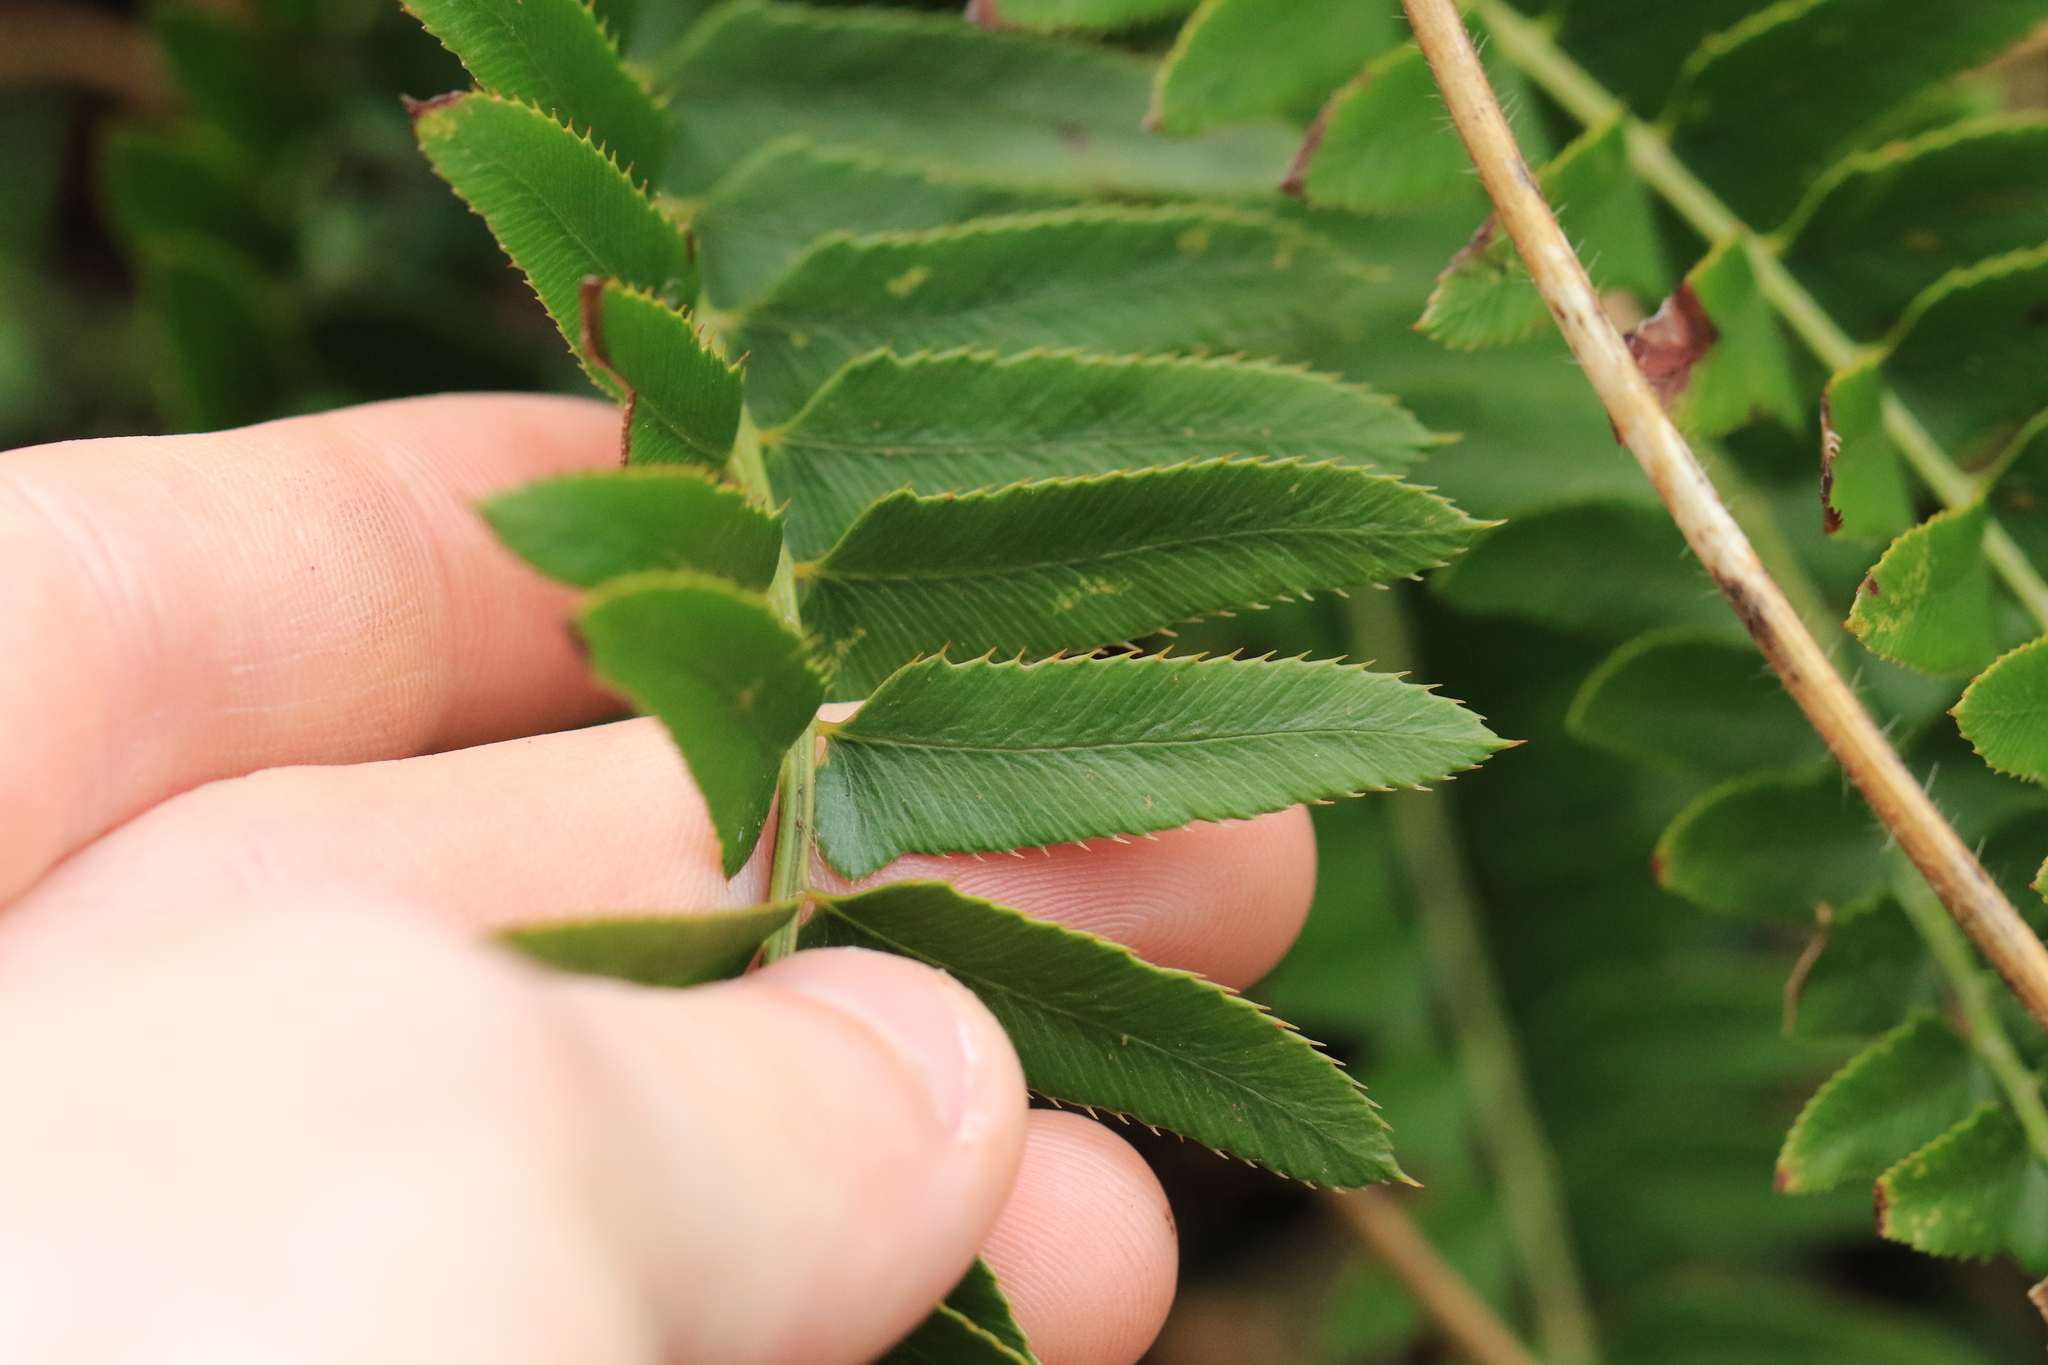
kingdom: Plantae
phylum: Tracheophyta
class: Polypodiopsida
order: Polypodiales
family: Dryopteridaceae
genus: Polystichum
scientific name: Polystichum imbricans
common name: Dwarf western sword fern
